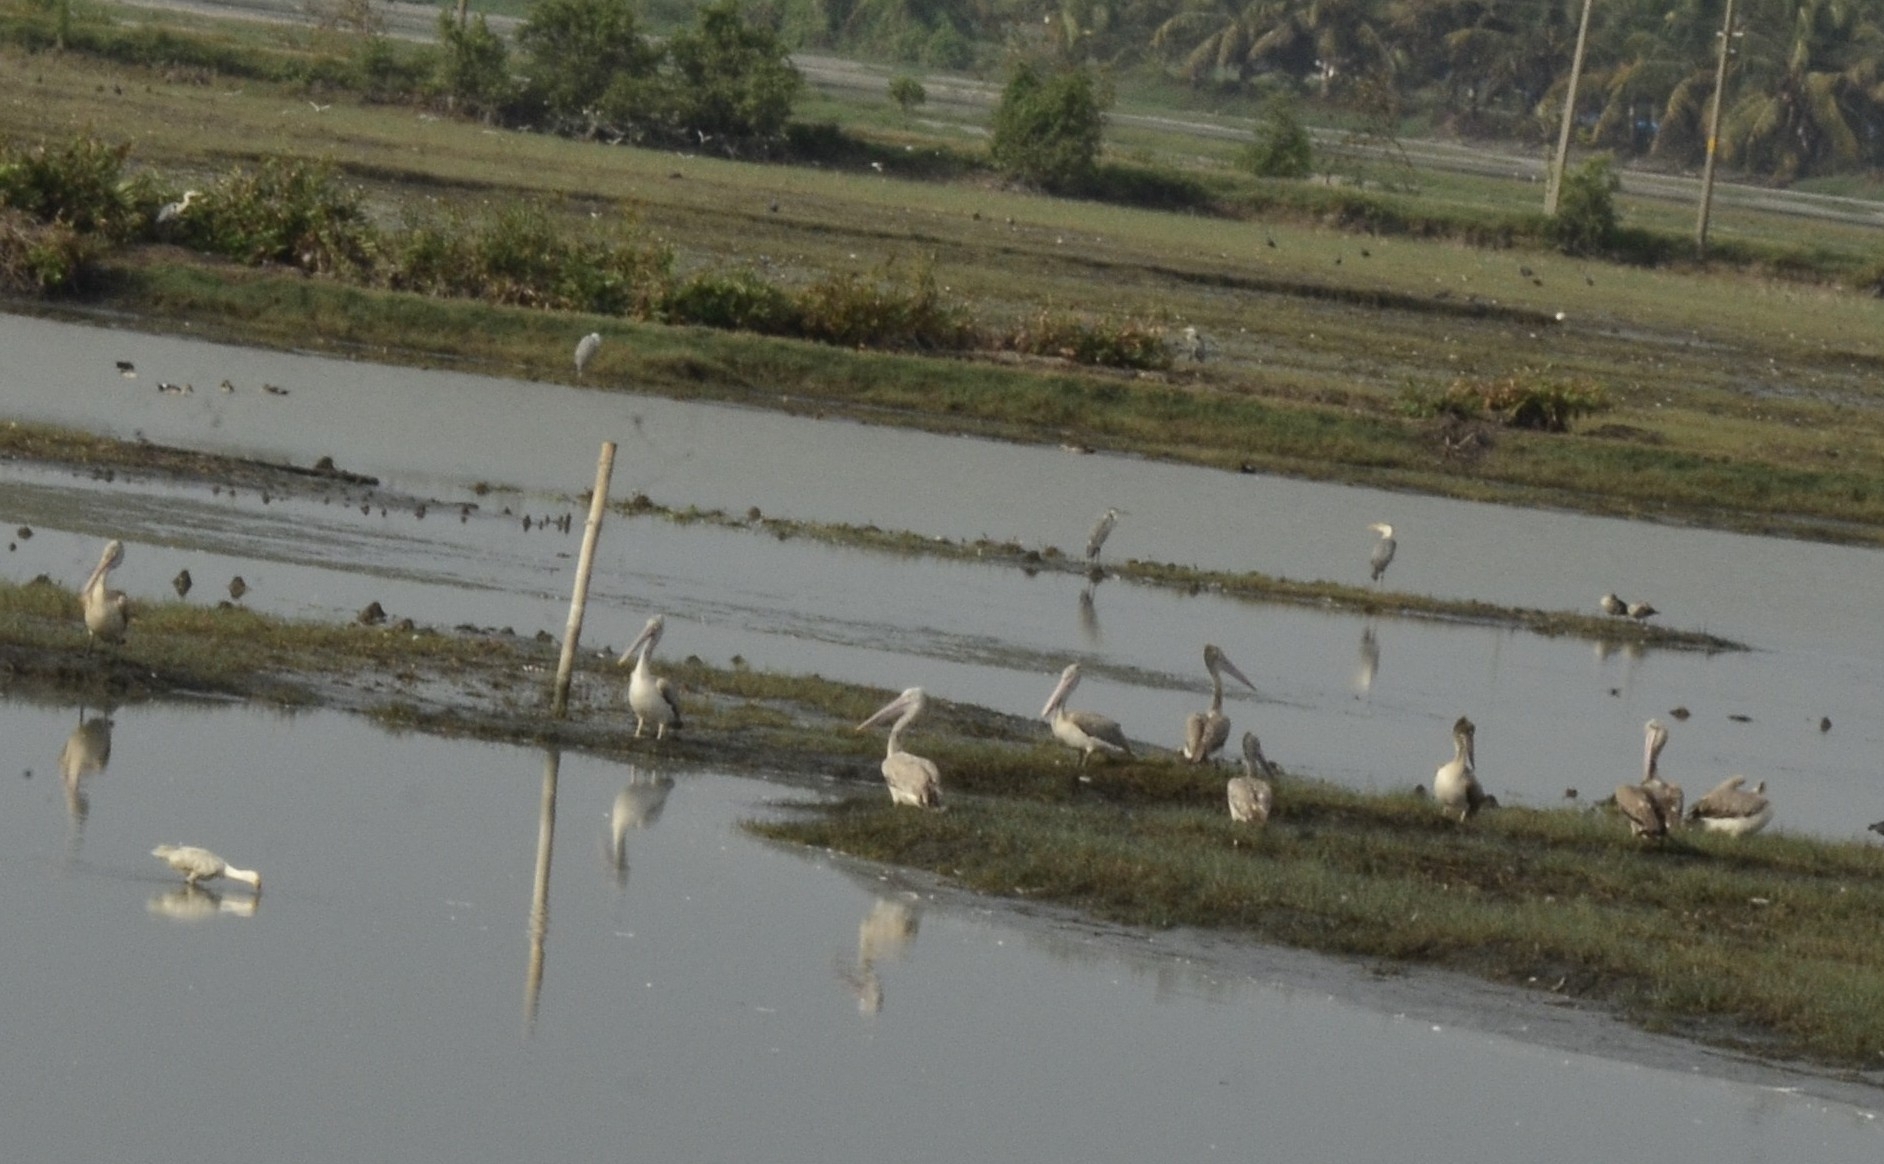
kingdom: Animalia
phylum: Chordata
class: Aves
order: Pelecaniformes
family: Pelecanidae
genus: Pelecanus
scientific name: Pelecanus philippensis
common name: Spot-billed pelican
